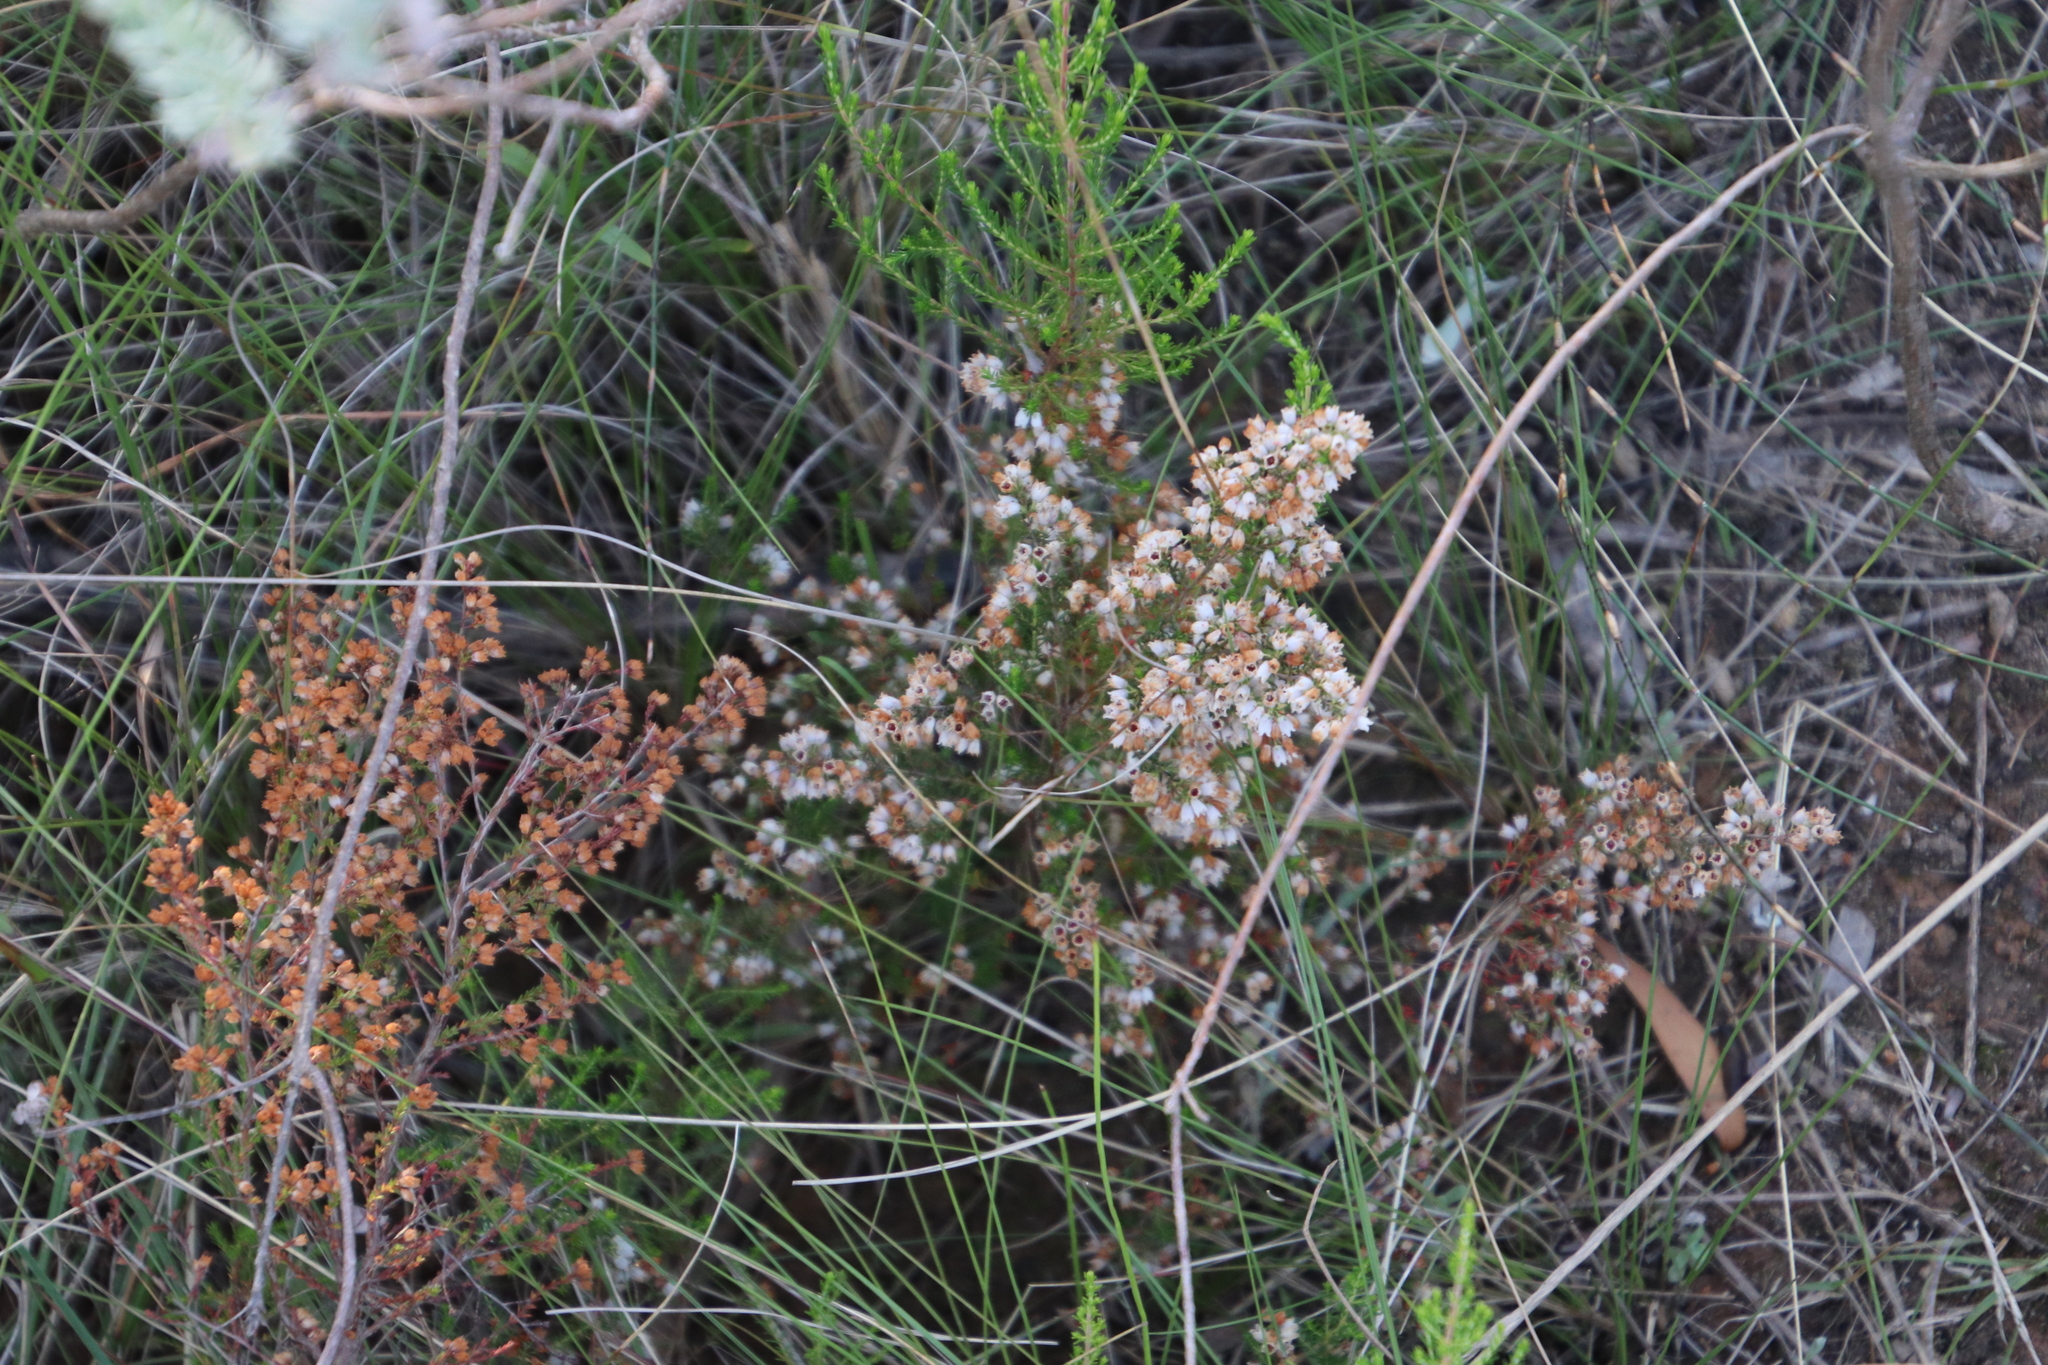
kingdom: Plantae
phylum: Tracheophyta
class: Magnoliopsida
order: Ericales
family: Ericaceae
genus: Erica
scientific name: Erica quadrangularis
